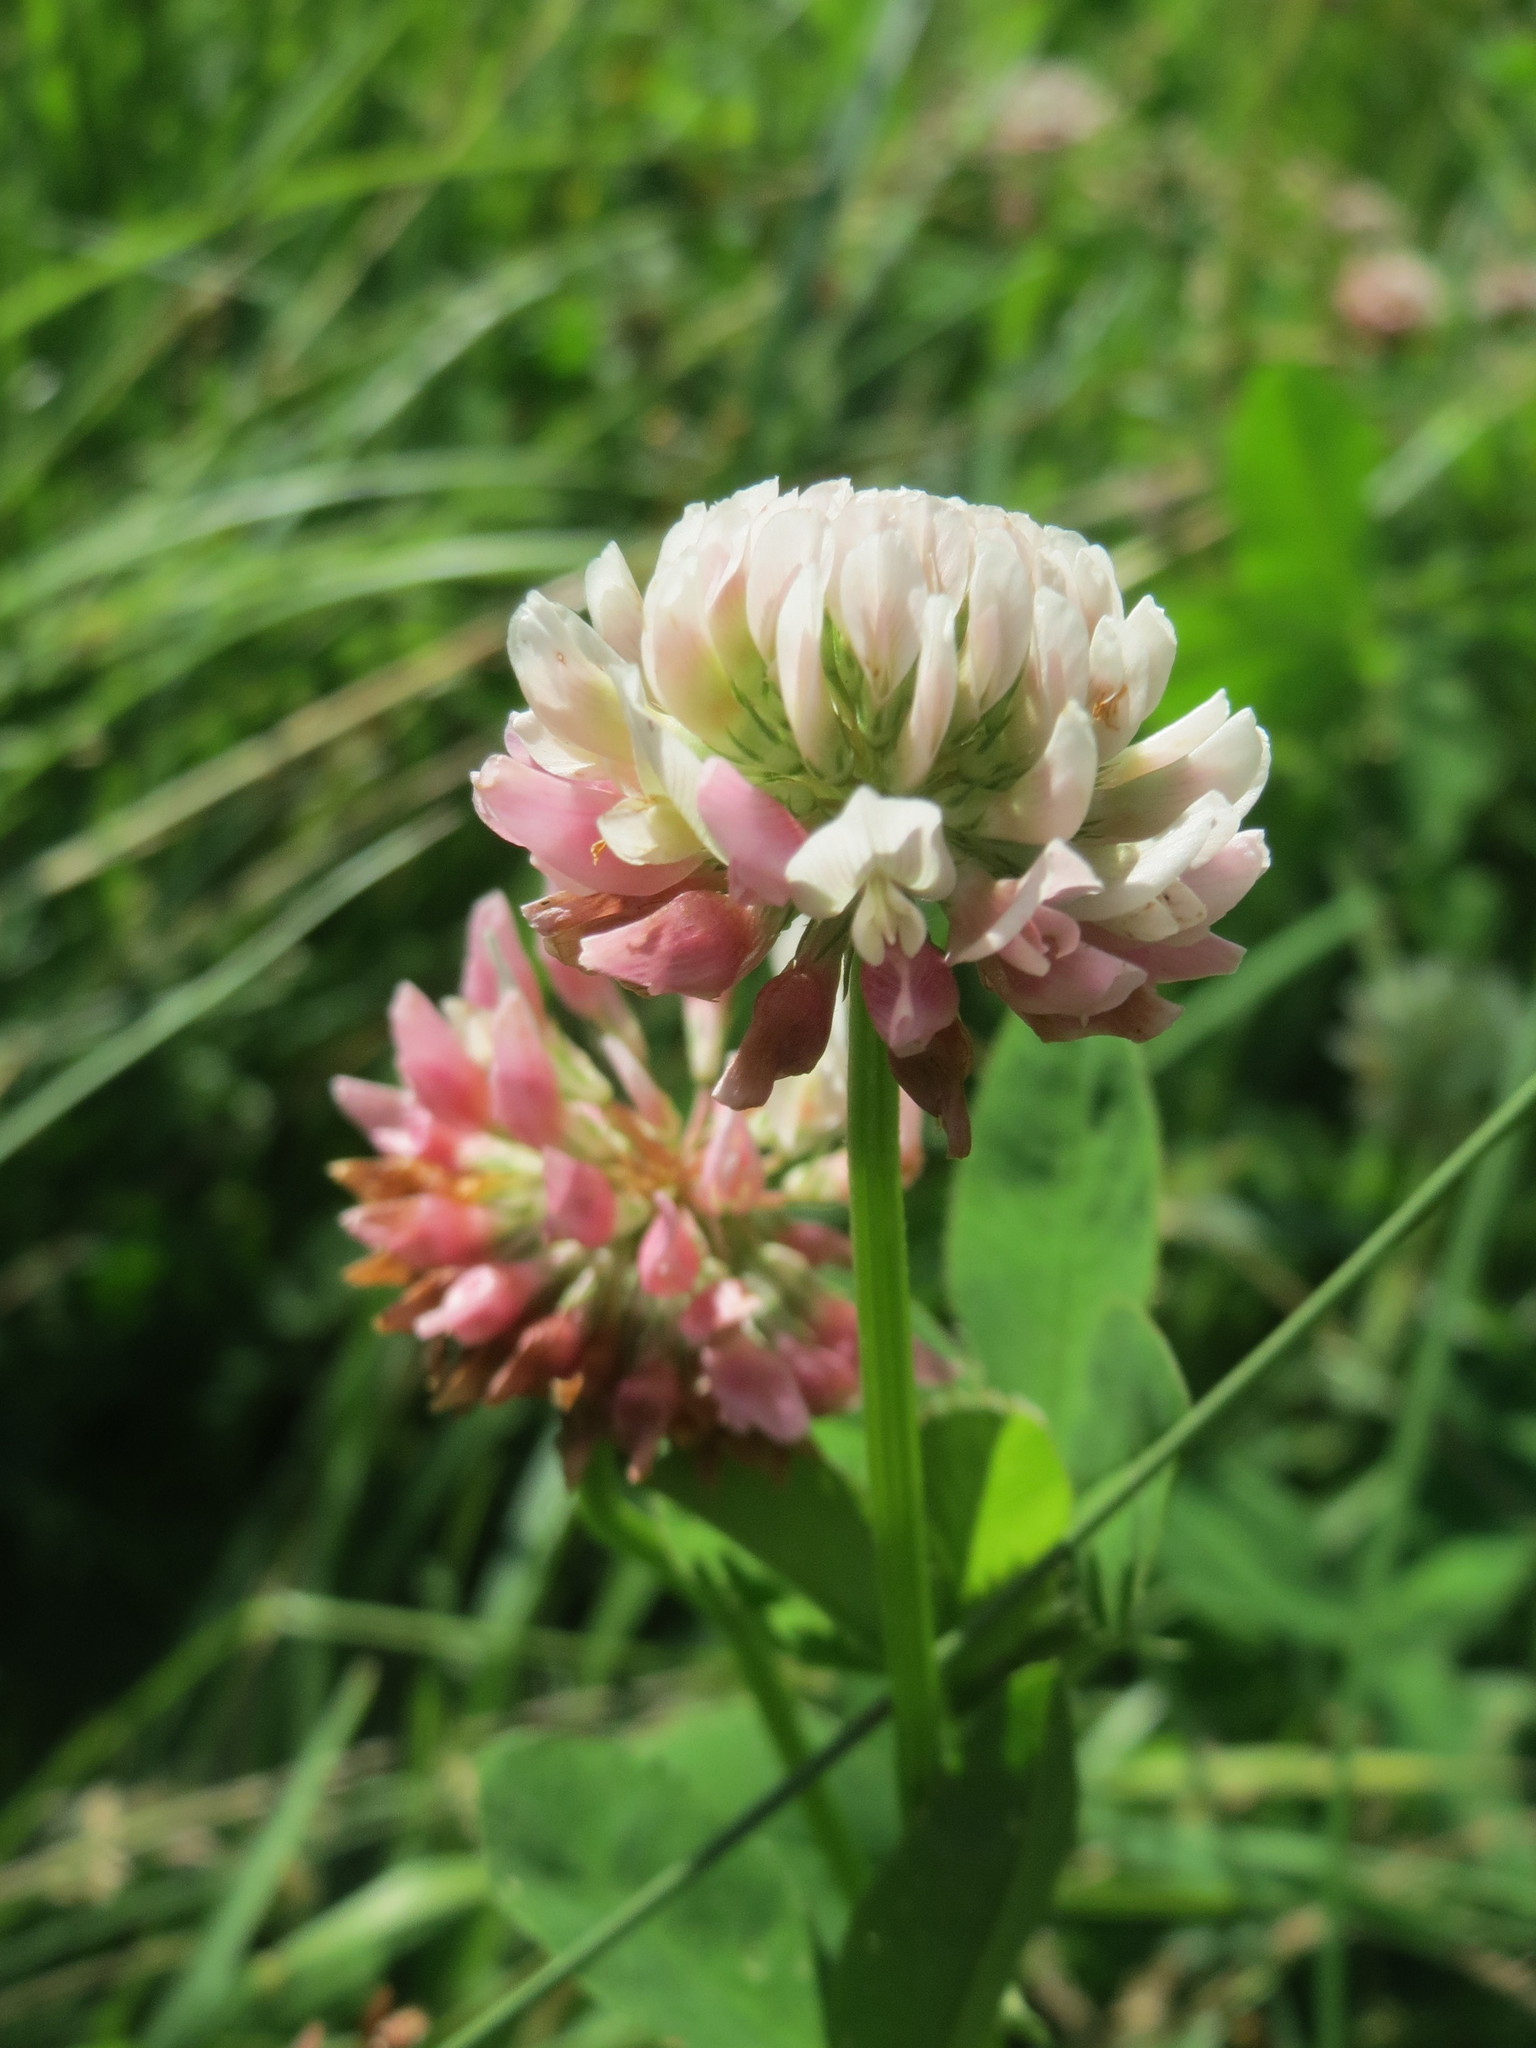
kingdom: Plantae
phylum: Tracheophyta
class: Magnoliopsida
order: Fabales
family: Fabaceae
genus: Trifolium
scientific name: Trifolium hybridum
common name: Alsike clover
